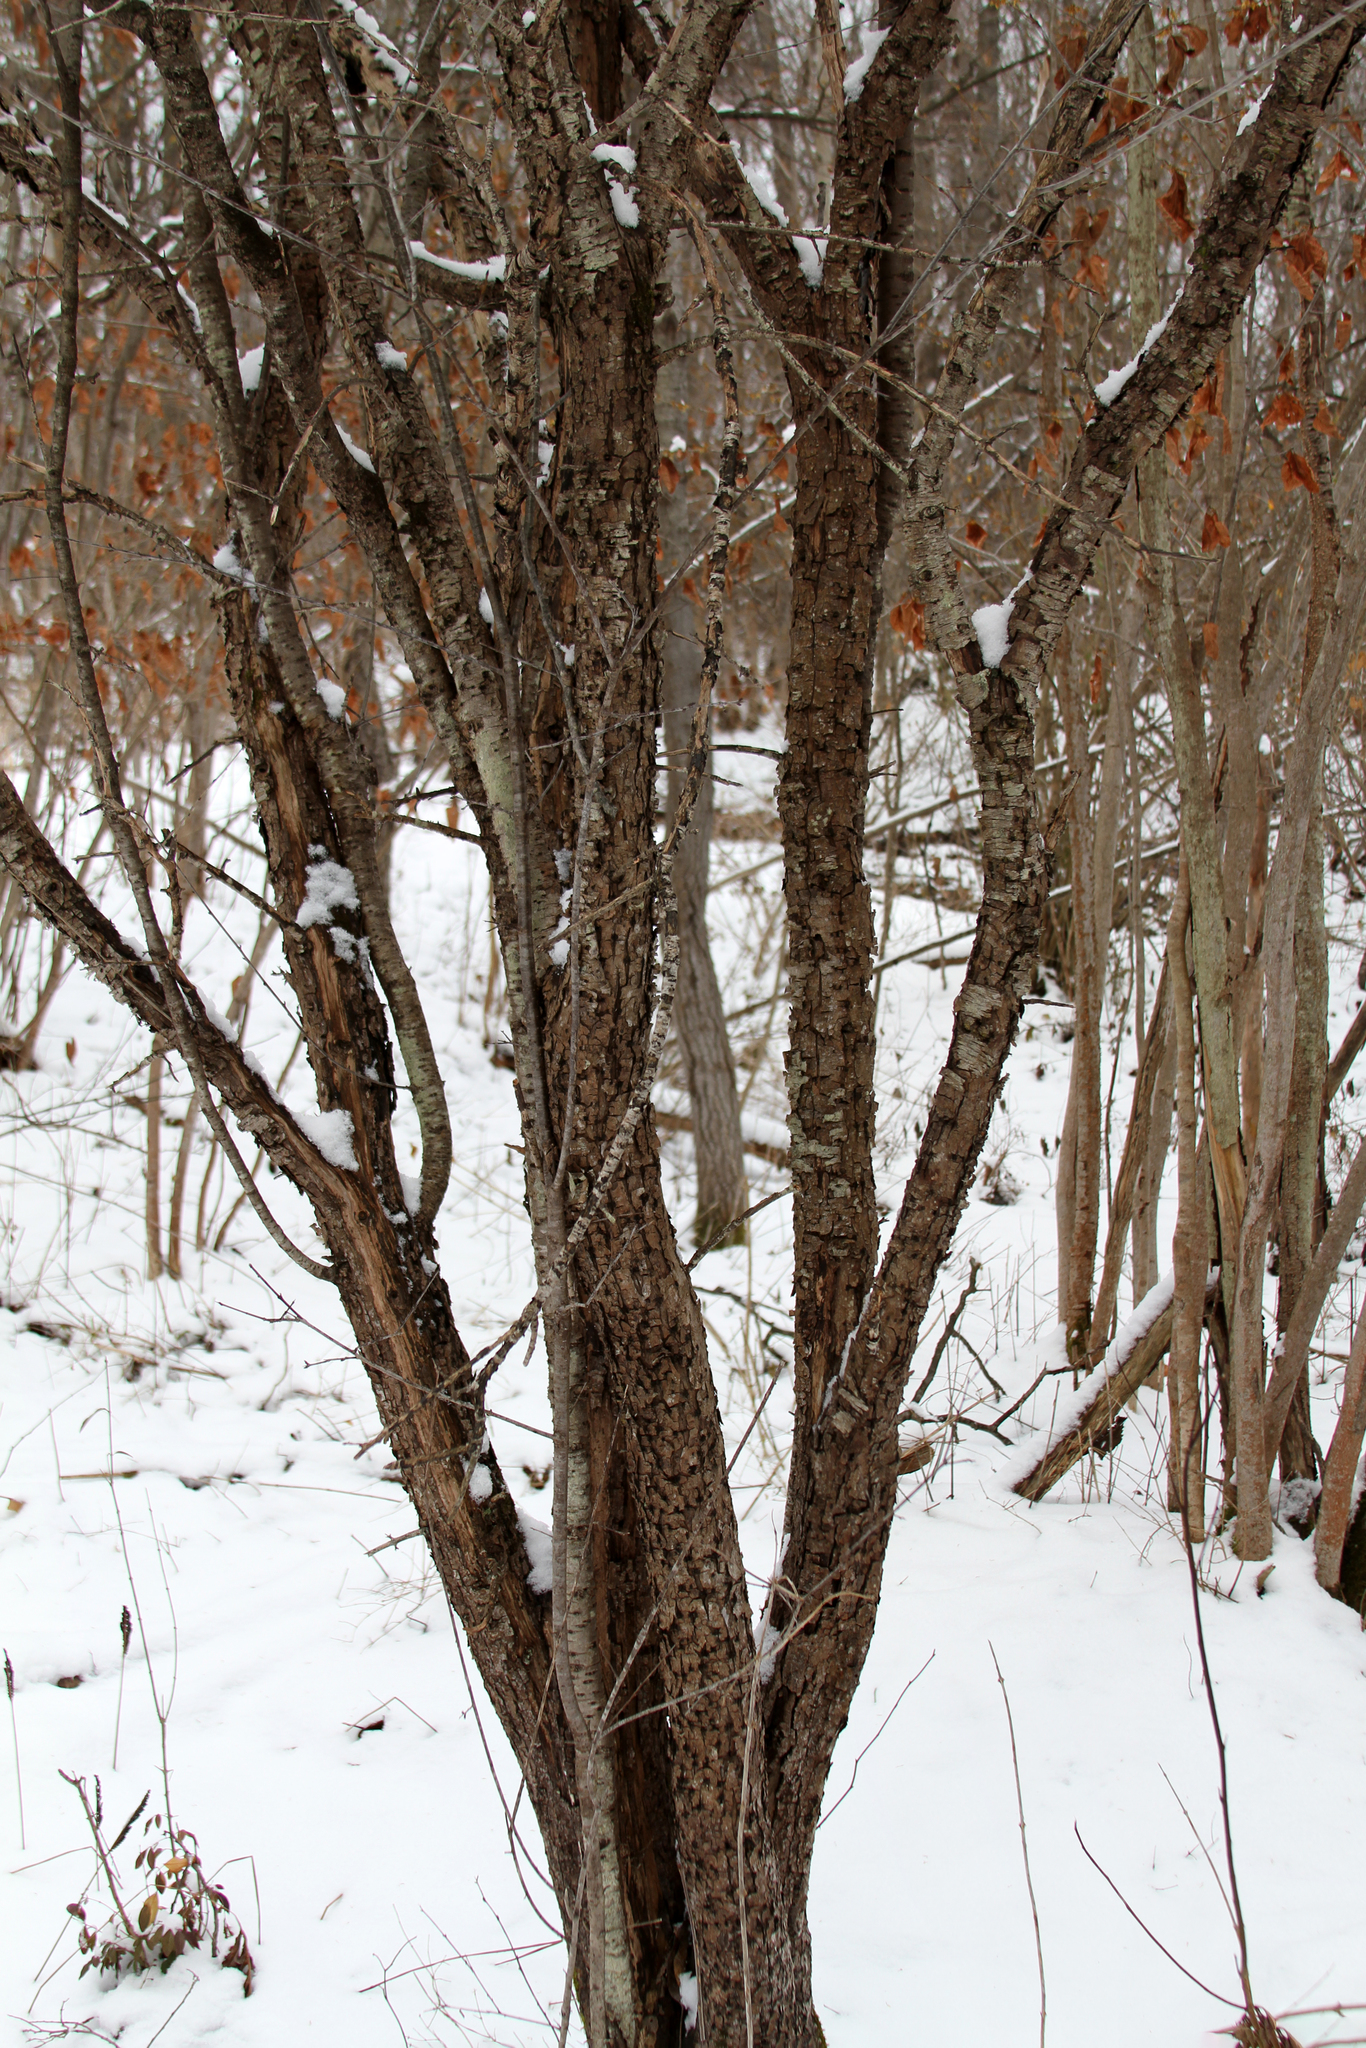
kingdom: Plantae
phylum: Tracheophyta
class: Magnoliopsida
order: Rosales
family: Rhamnaceae
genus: Rhamnus
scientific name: Rhamnus cathartica
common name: Common buckthorn
